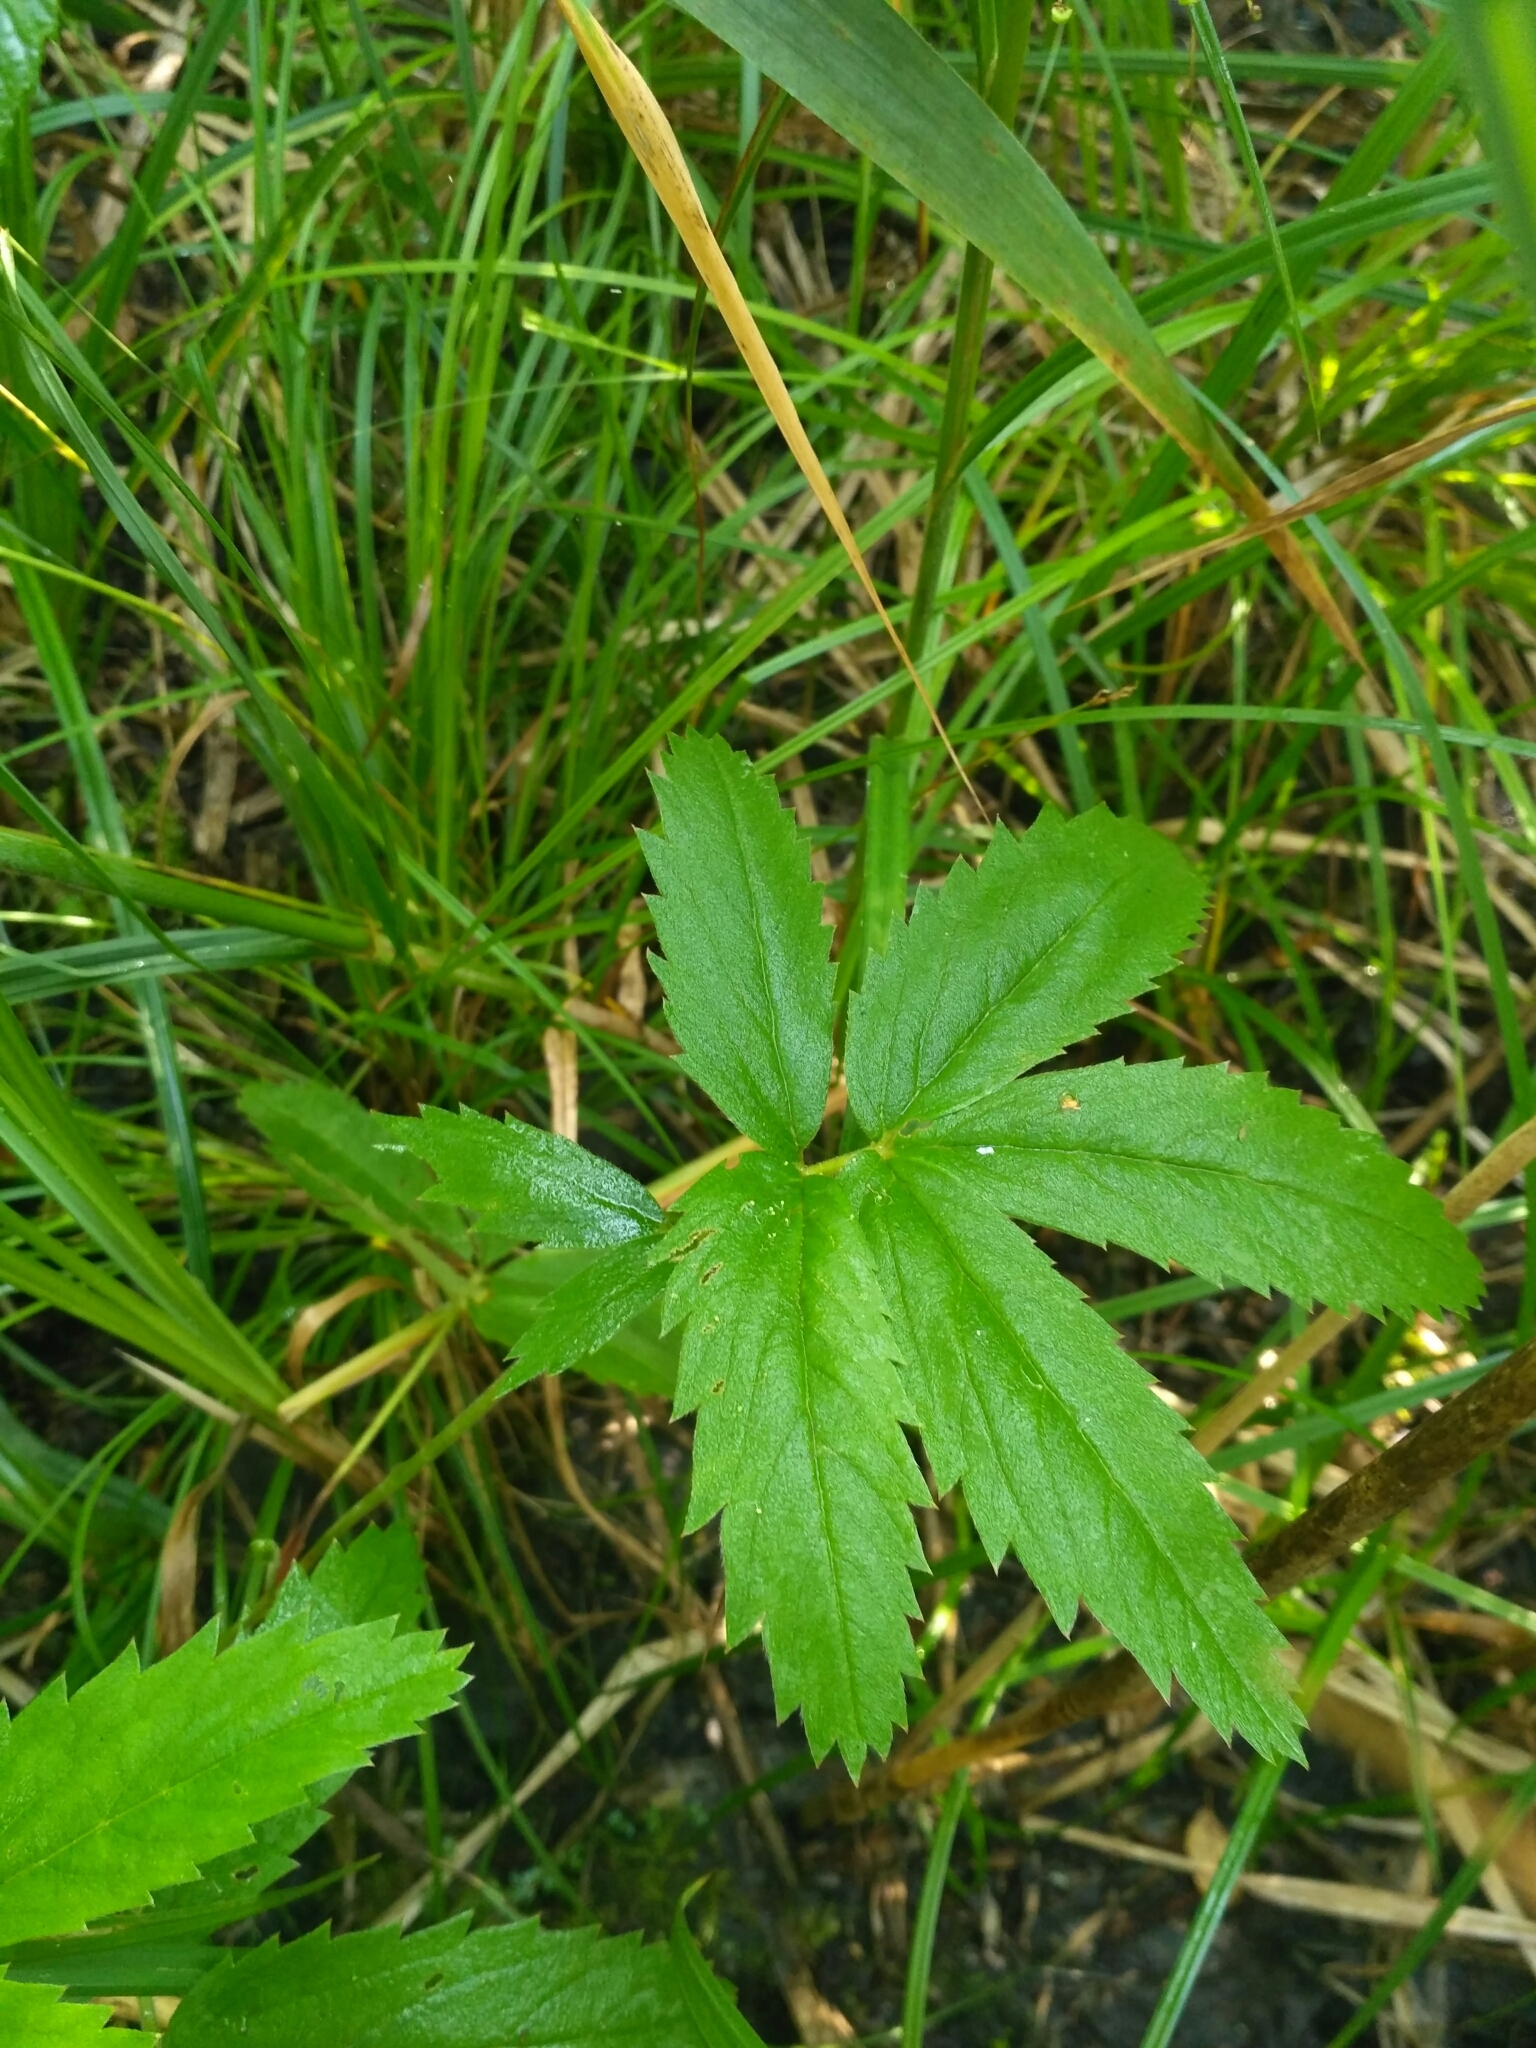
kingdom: Plantae
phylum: Tracheophyta
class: Magnoliopsida
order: Rosales
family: Rosaceae
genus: Comarum
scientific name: Comarum palustre
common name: Marsh cinquefoil
